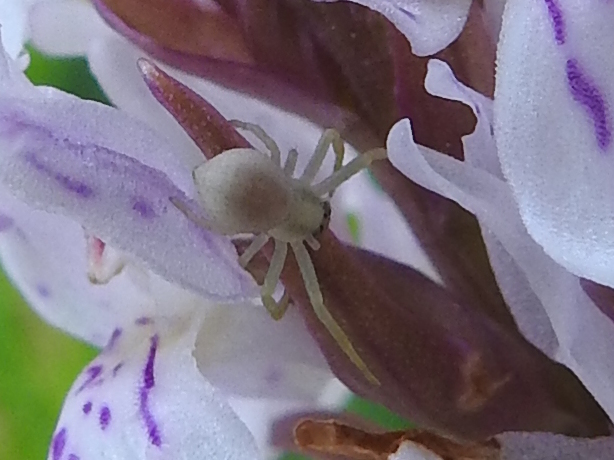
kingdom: Animalia
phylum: Arthropoda
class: Arachnida
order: Araneae
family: Thomisidae
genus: Misumena
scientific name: Misumena vatia
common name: Goldenrod crab spider
